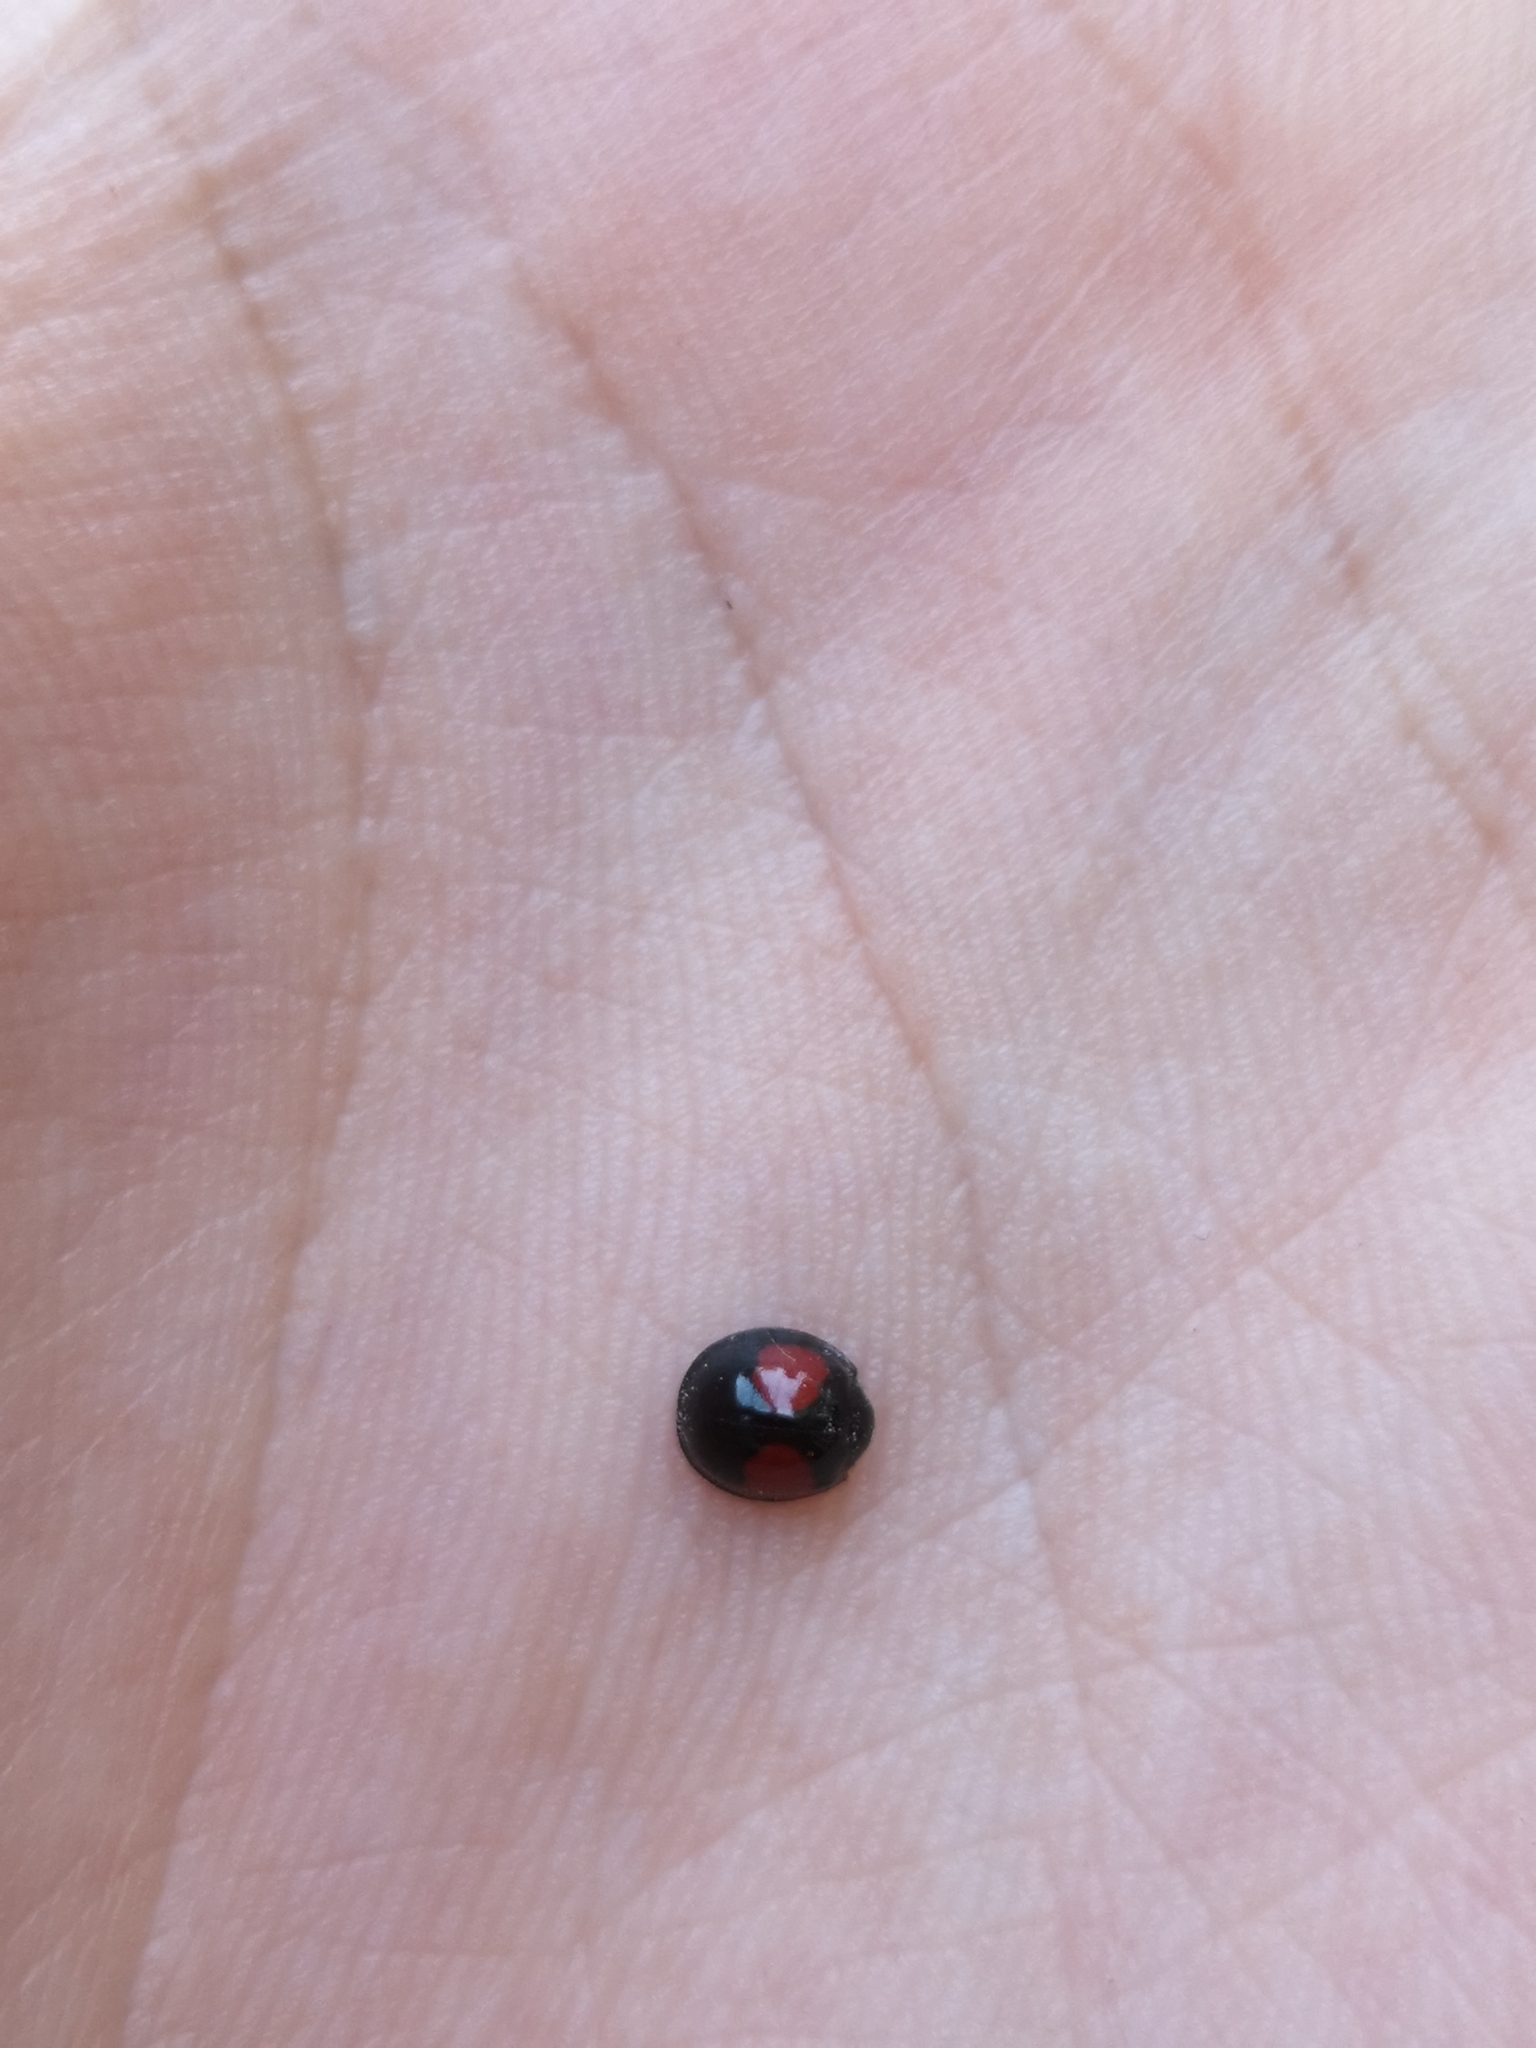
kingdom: Animalia
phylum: Arthropoda
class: Insecta
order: Coleoptera
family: Coccinellidae
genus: Chilocorus
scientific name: Chilocorus renipustulatus
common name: Kidney-spot ladybird
